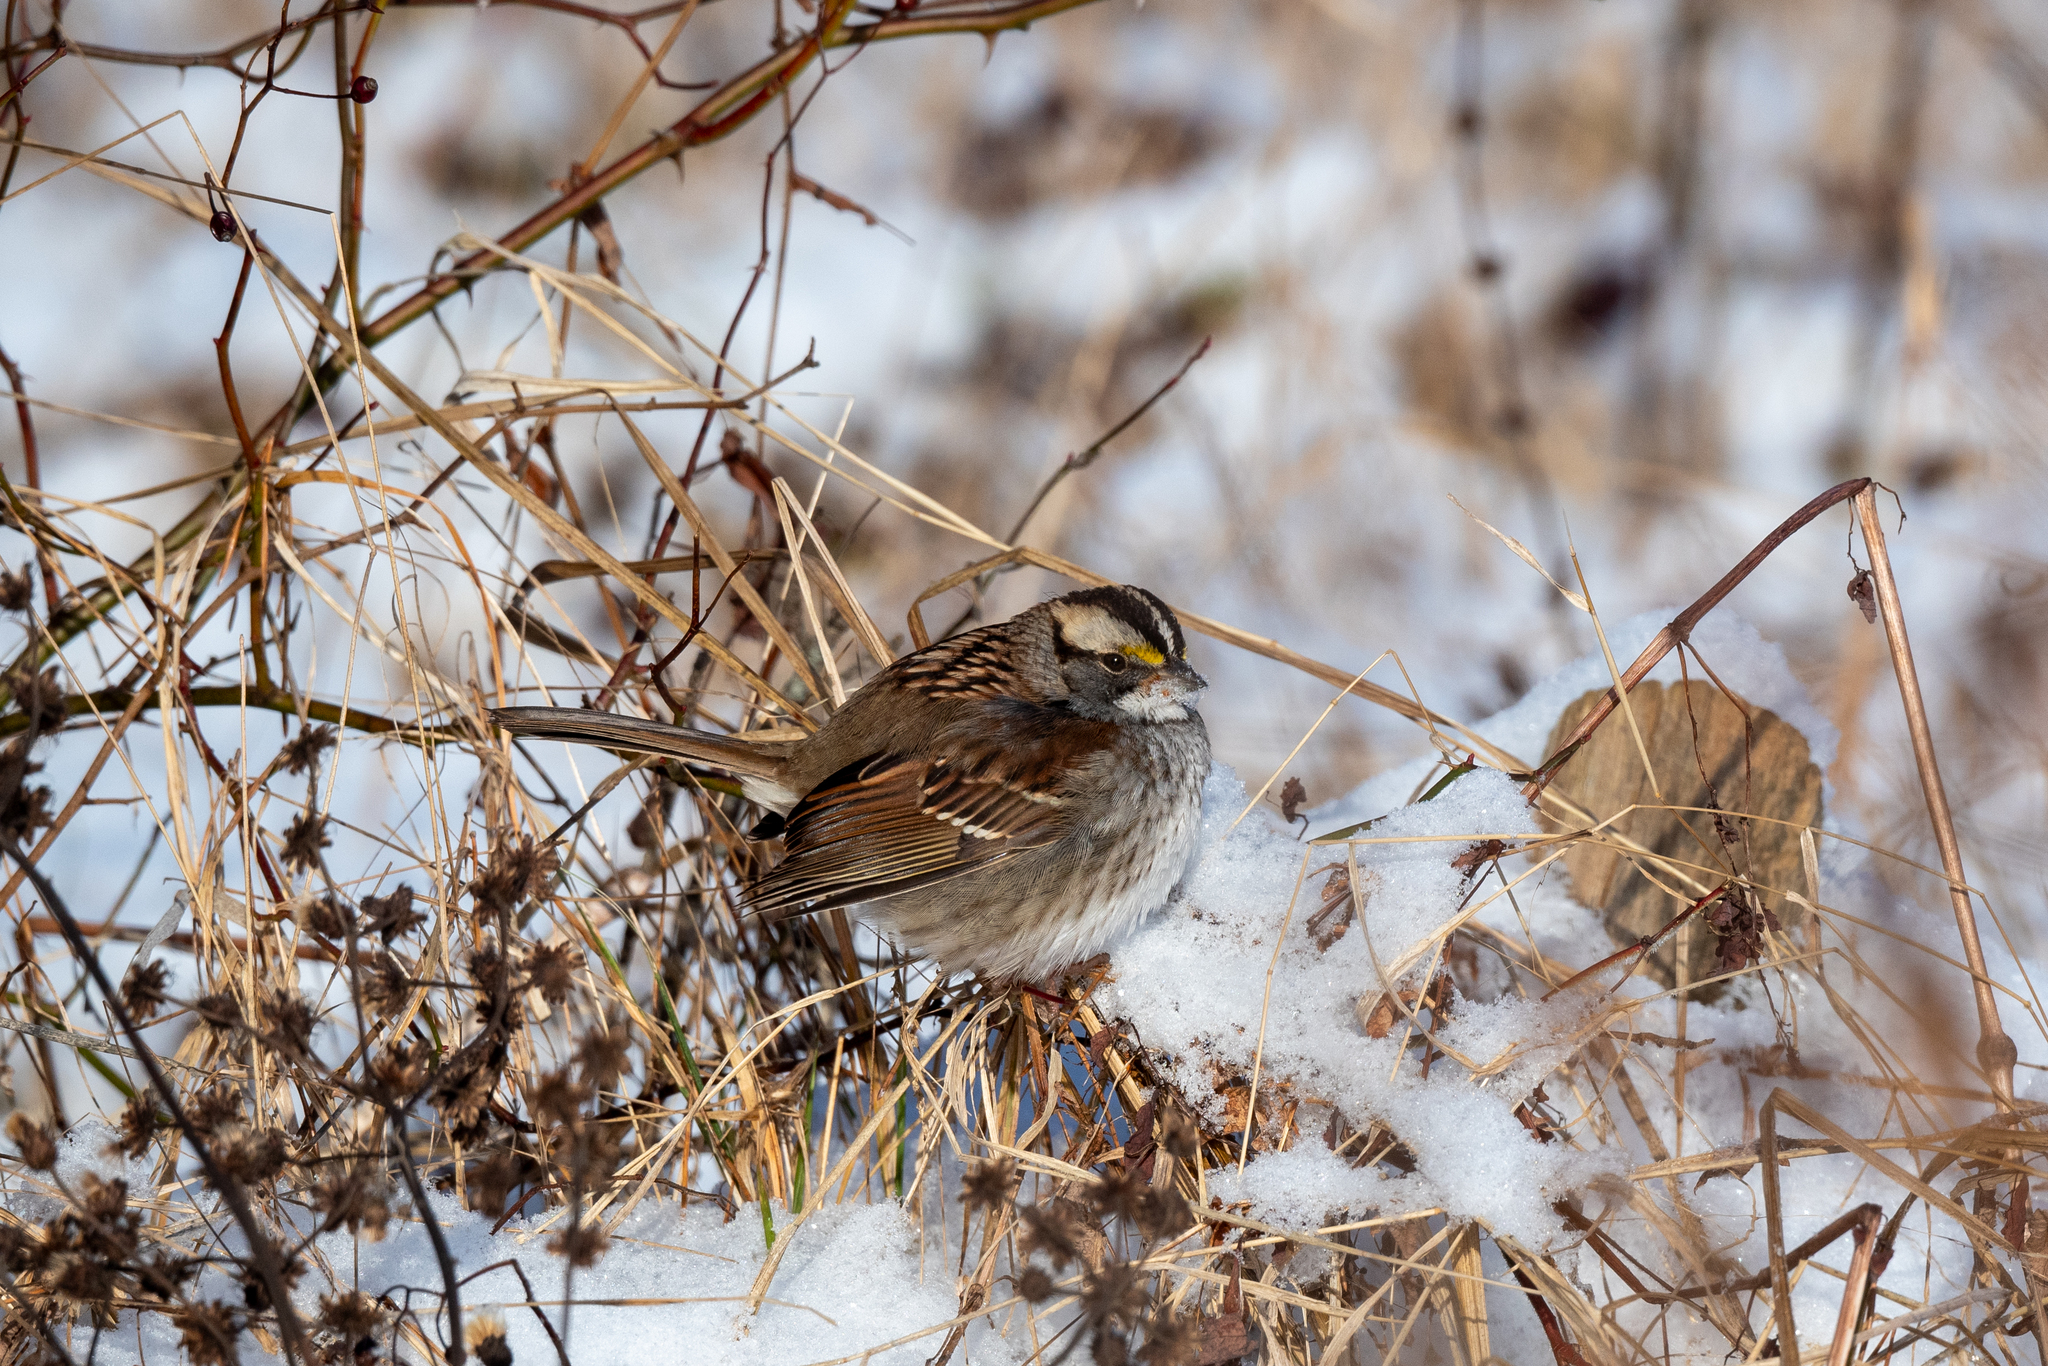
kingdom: Animalia
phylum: Chordata
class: Aves
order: Passeriformes
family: Passerellidae
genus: Zonotrichia
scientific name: Zonotrichia albicollis
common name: White-throated sparrow
